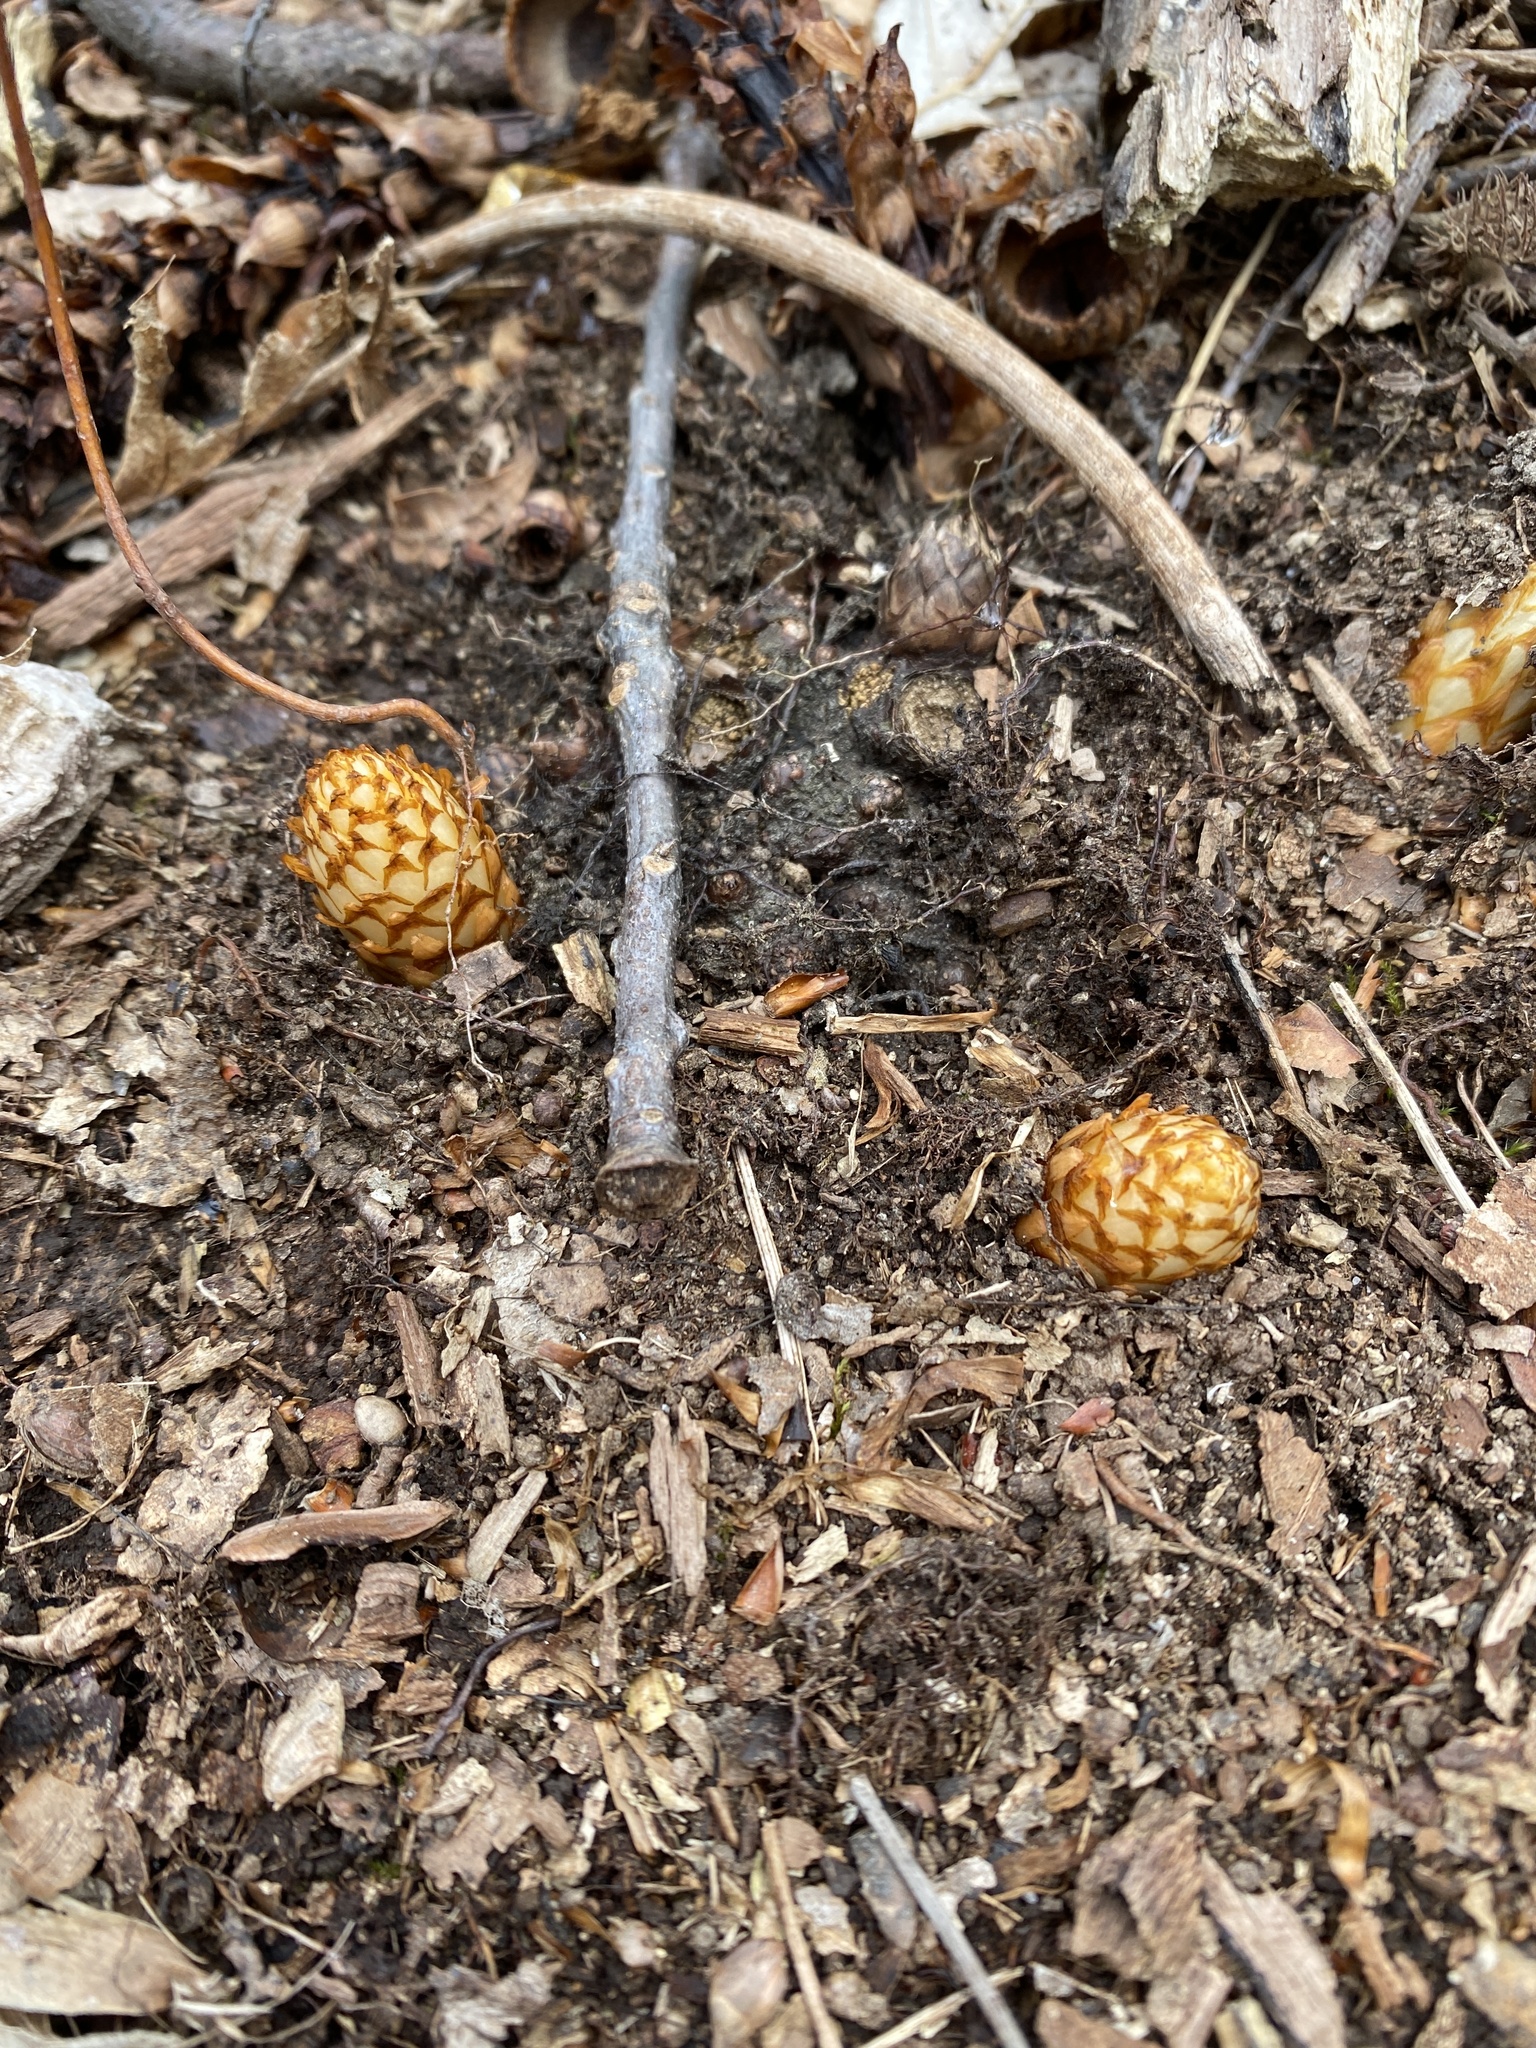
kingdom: Plantae
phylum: Tracheophyta
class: Magnoliopsida
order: Lamiales
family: Orobanchaceae
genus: Conopholis
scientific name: Conopholis americana
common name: American cancer-root
